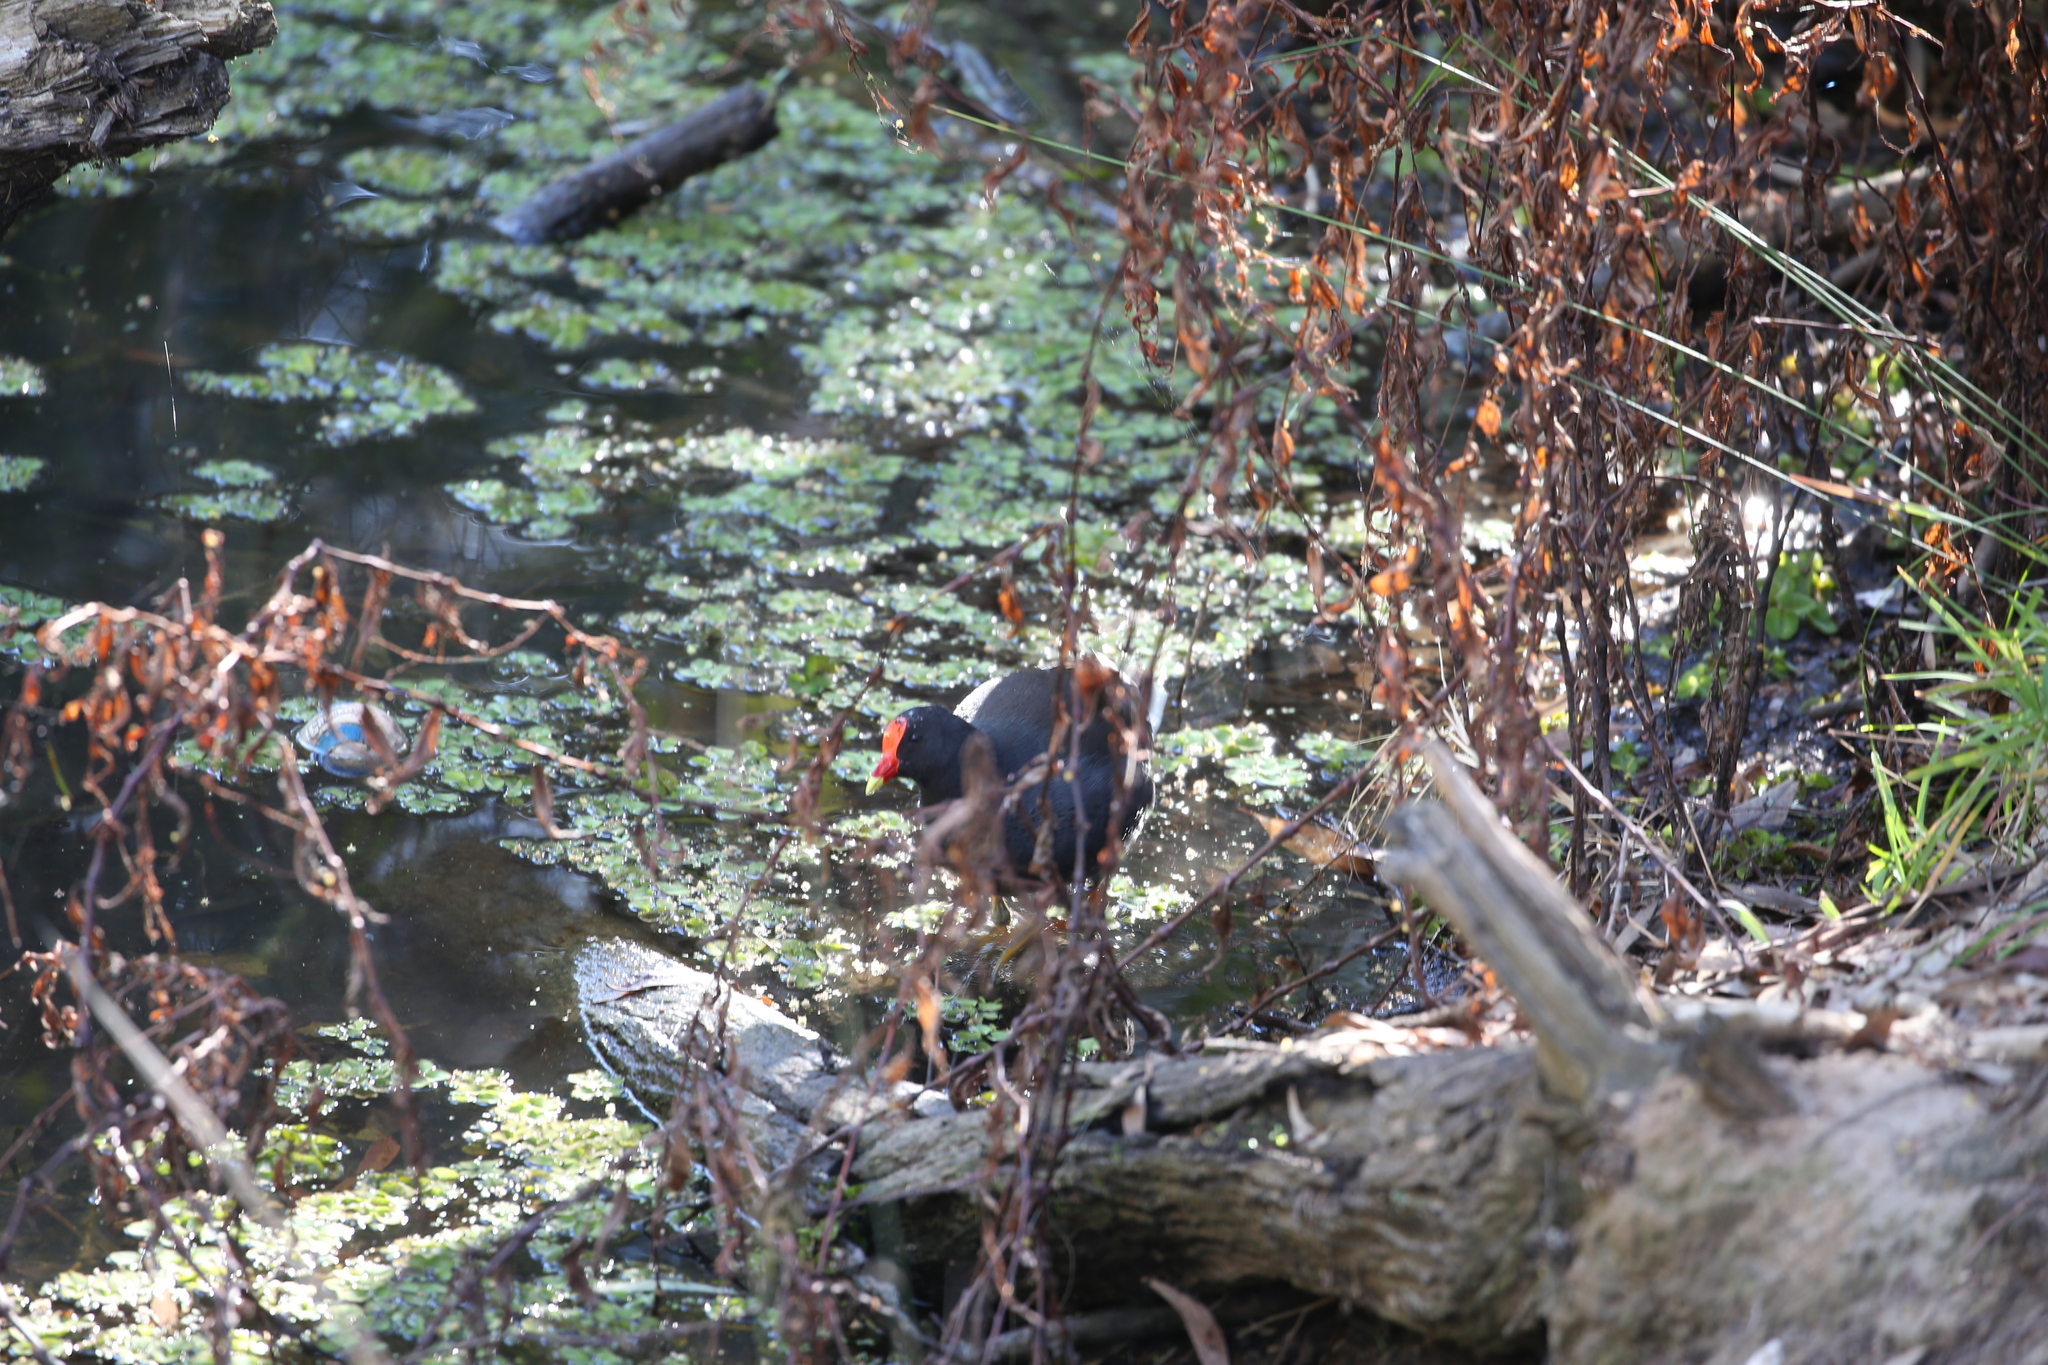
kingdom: Animalia
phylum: Chordata
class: Aves
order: Gruiformes
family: Rallidae
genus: Gallinula
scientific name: Gallinula tenebrosa
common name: Dusky moorhen
